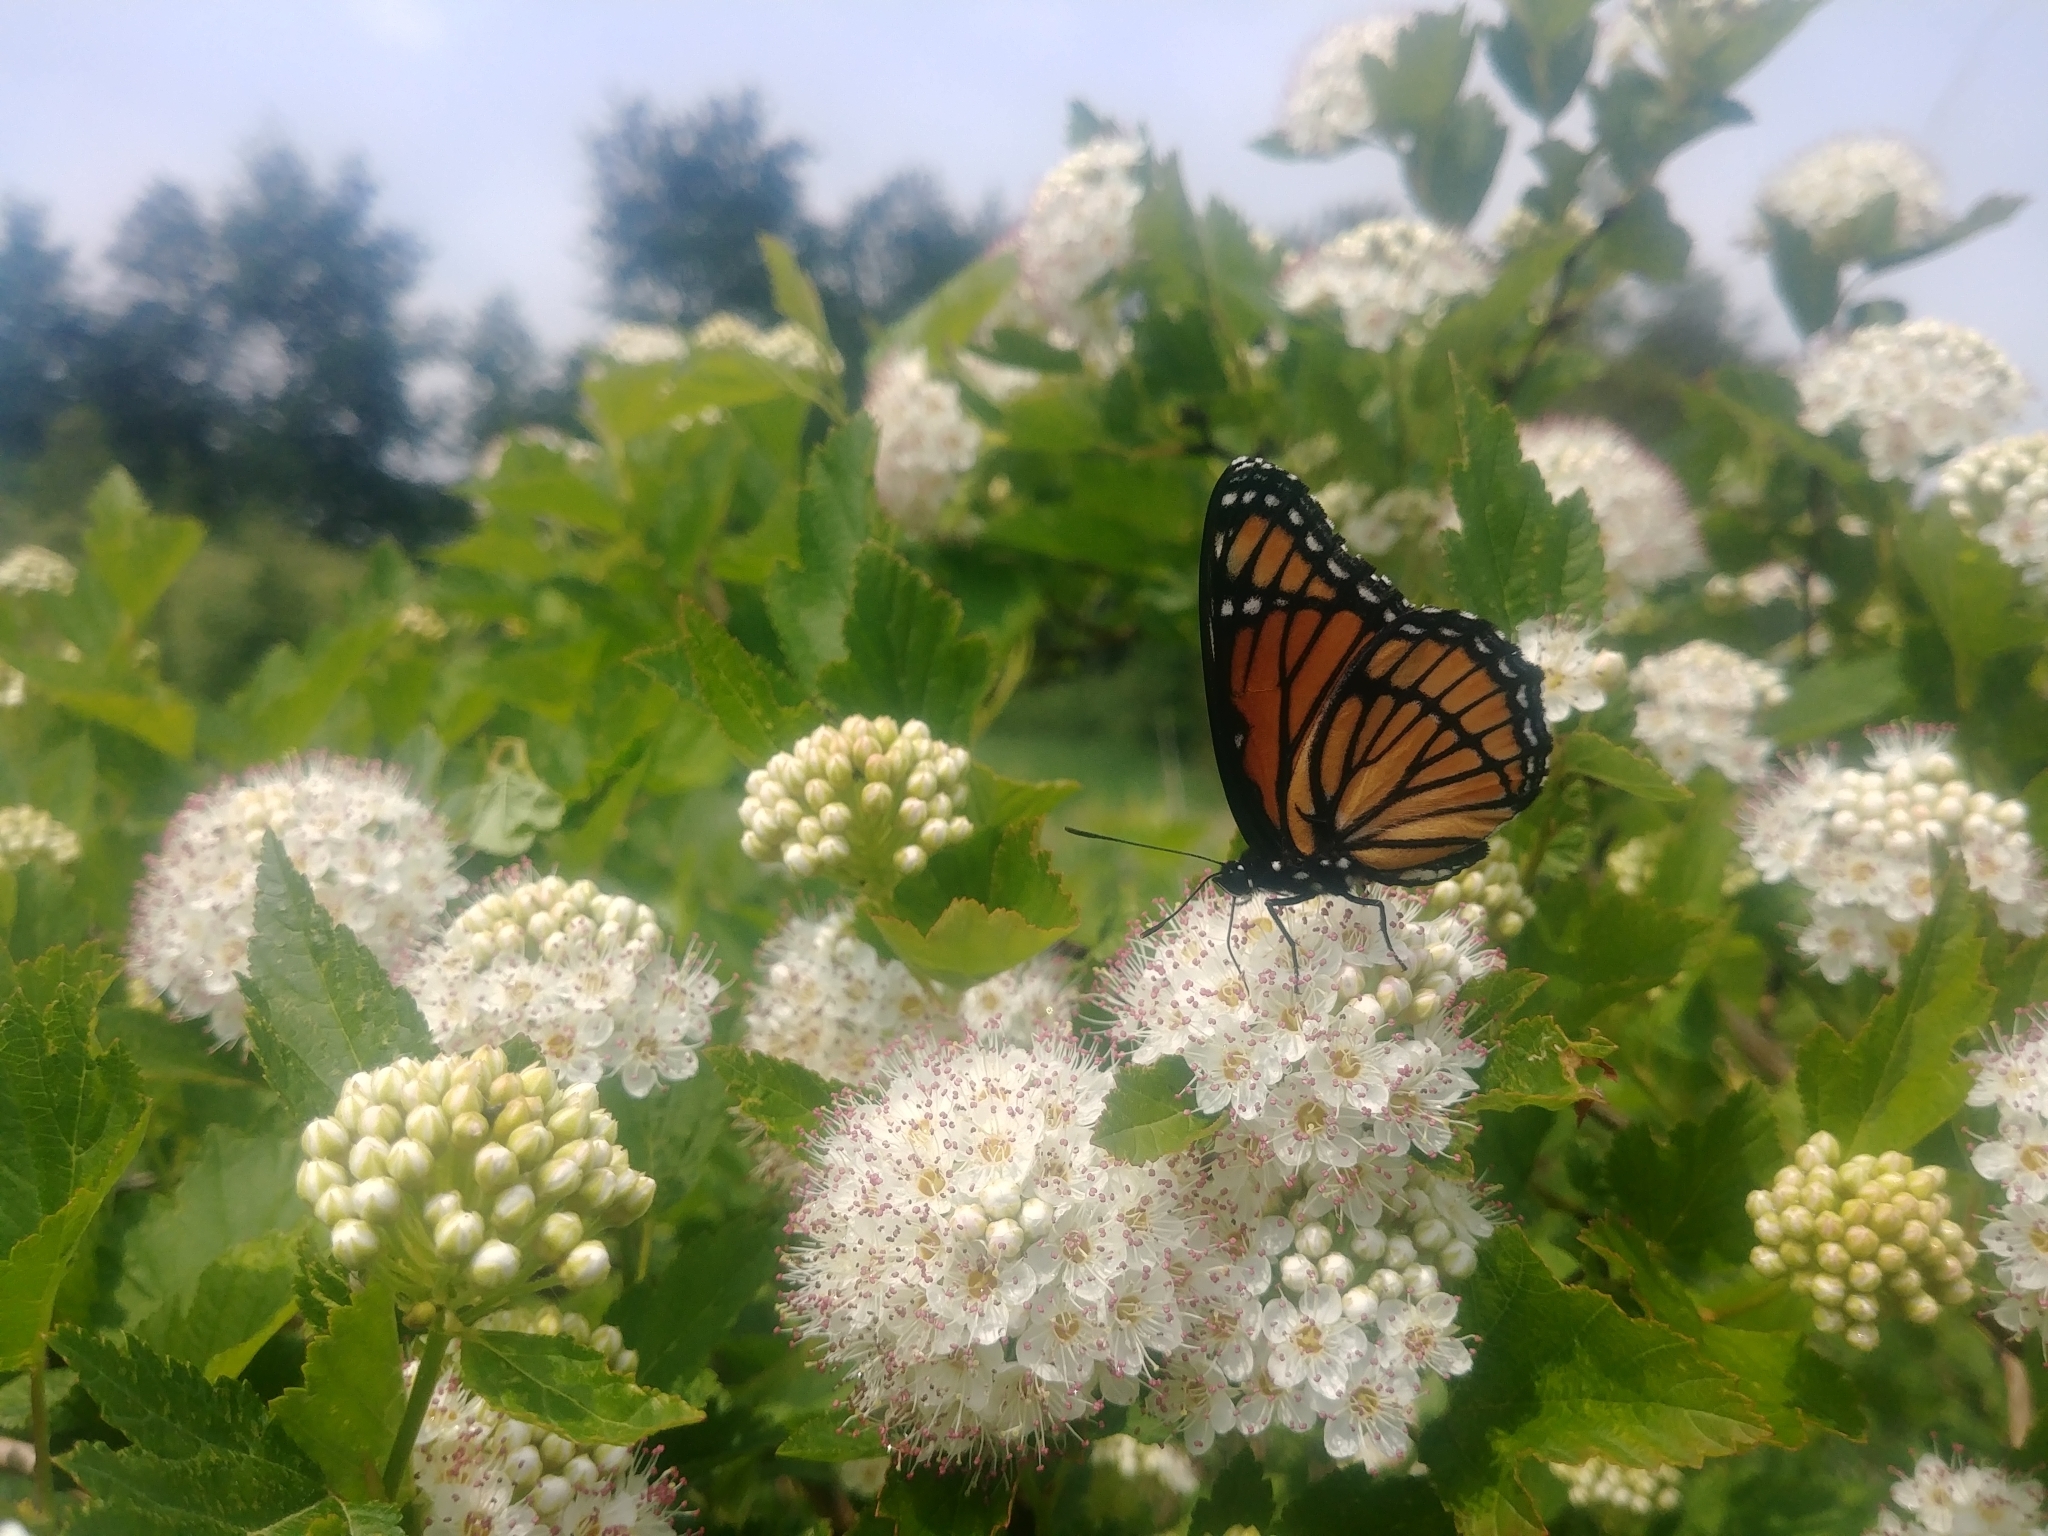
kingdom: Animalia
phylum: Arthropoda
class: Insecta
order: Lepidoptera
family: Nymphalidae
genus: Limenitis
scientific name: Limenitis archippus
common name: Viceroy
